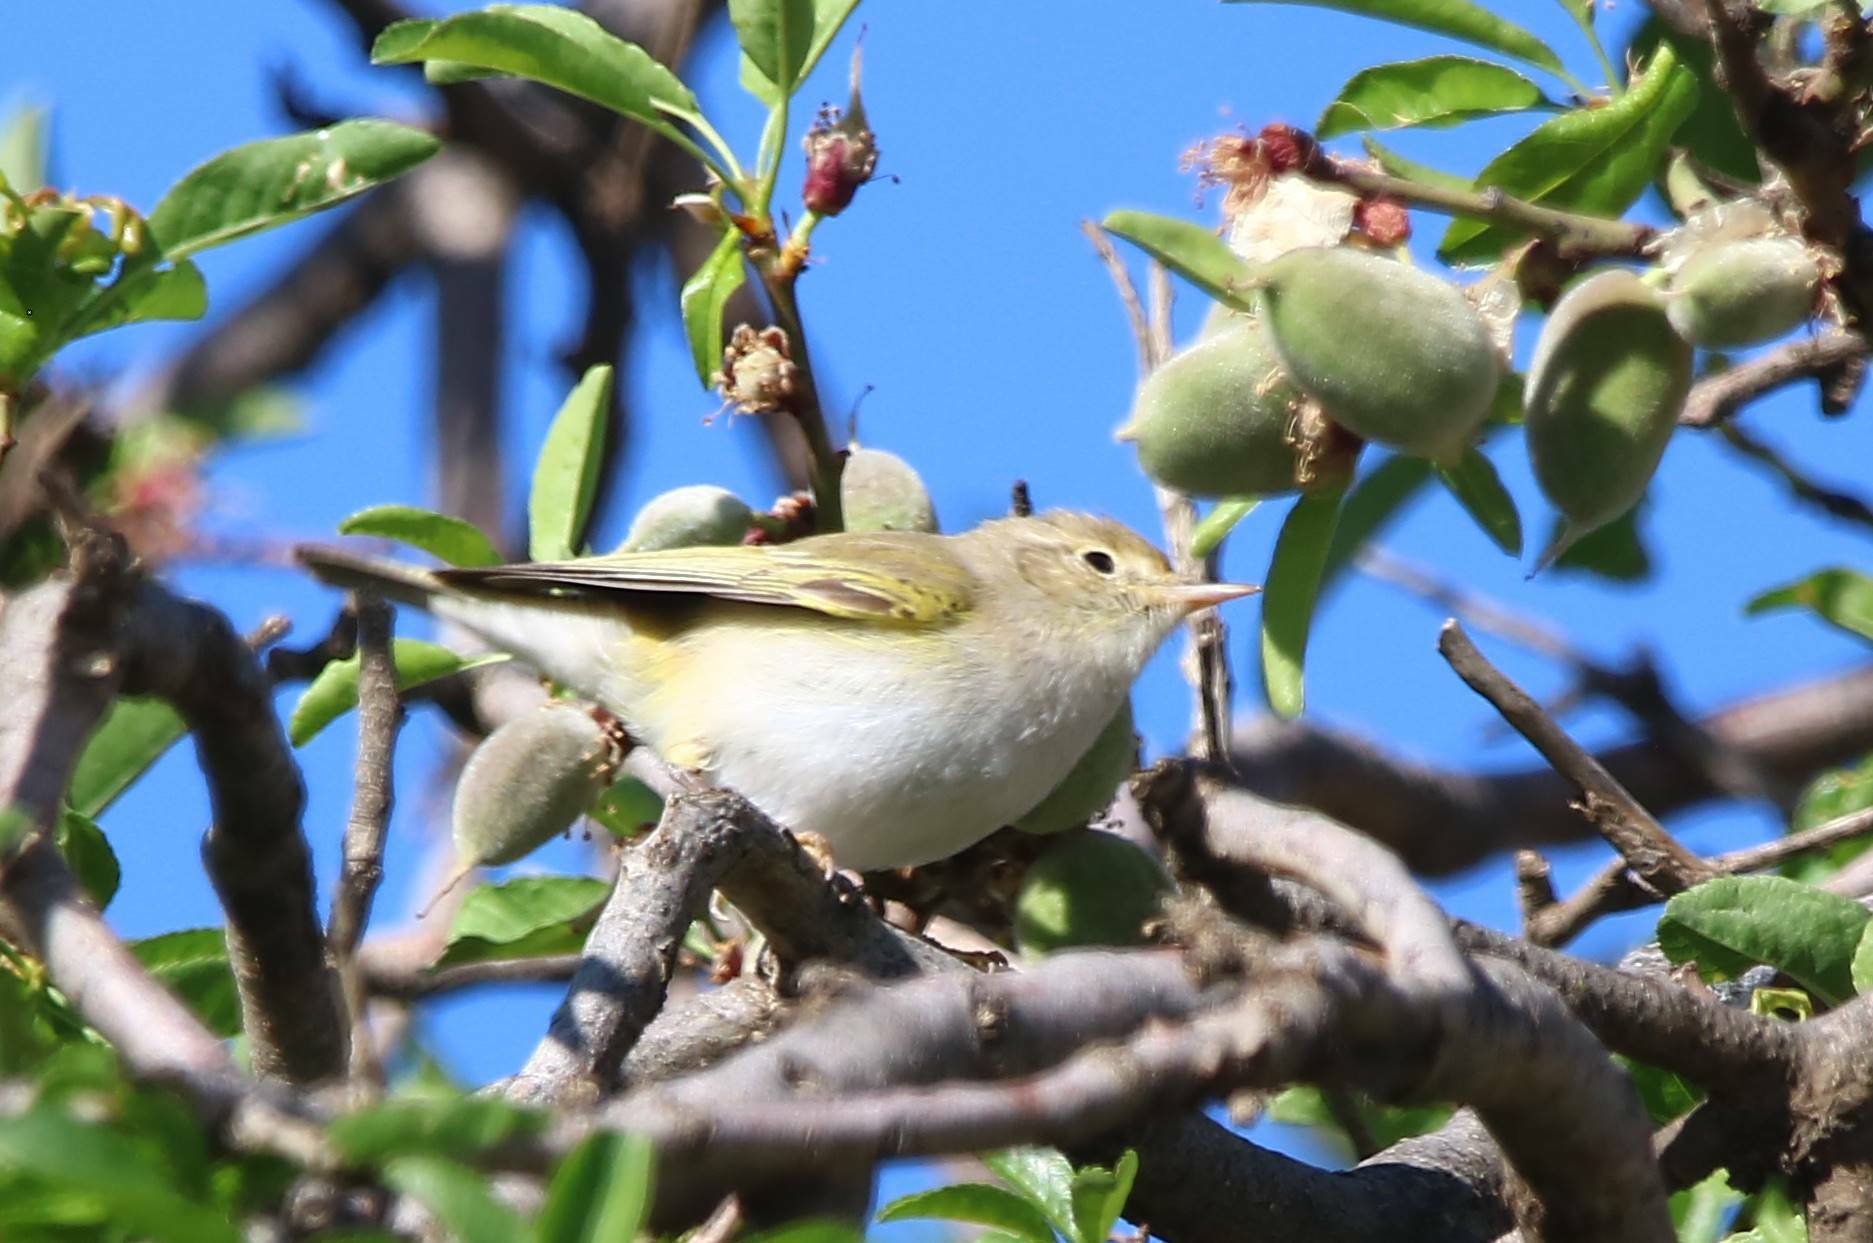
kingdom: Animalia
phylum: Chordata
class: Aves
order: Passeriformes
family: Phylloscopidae
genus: Phylloscopus
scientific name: Phylloscopus bonelli
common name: Western bonelli's warbler
